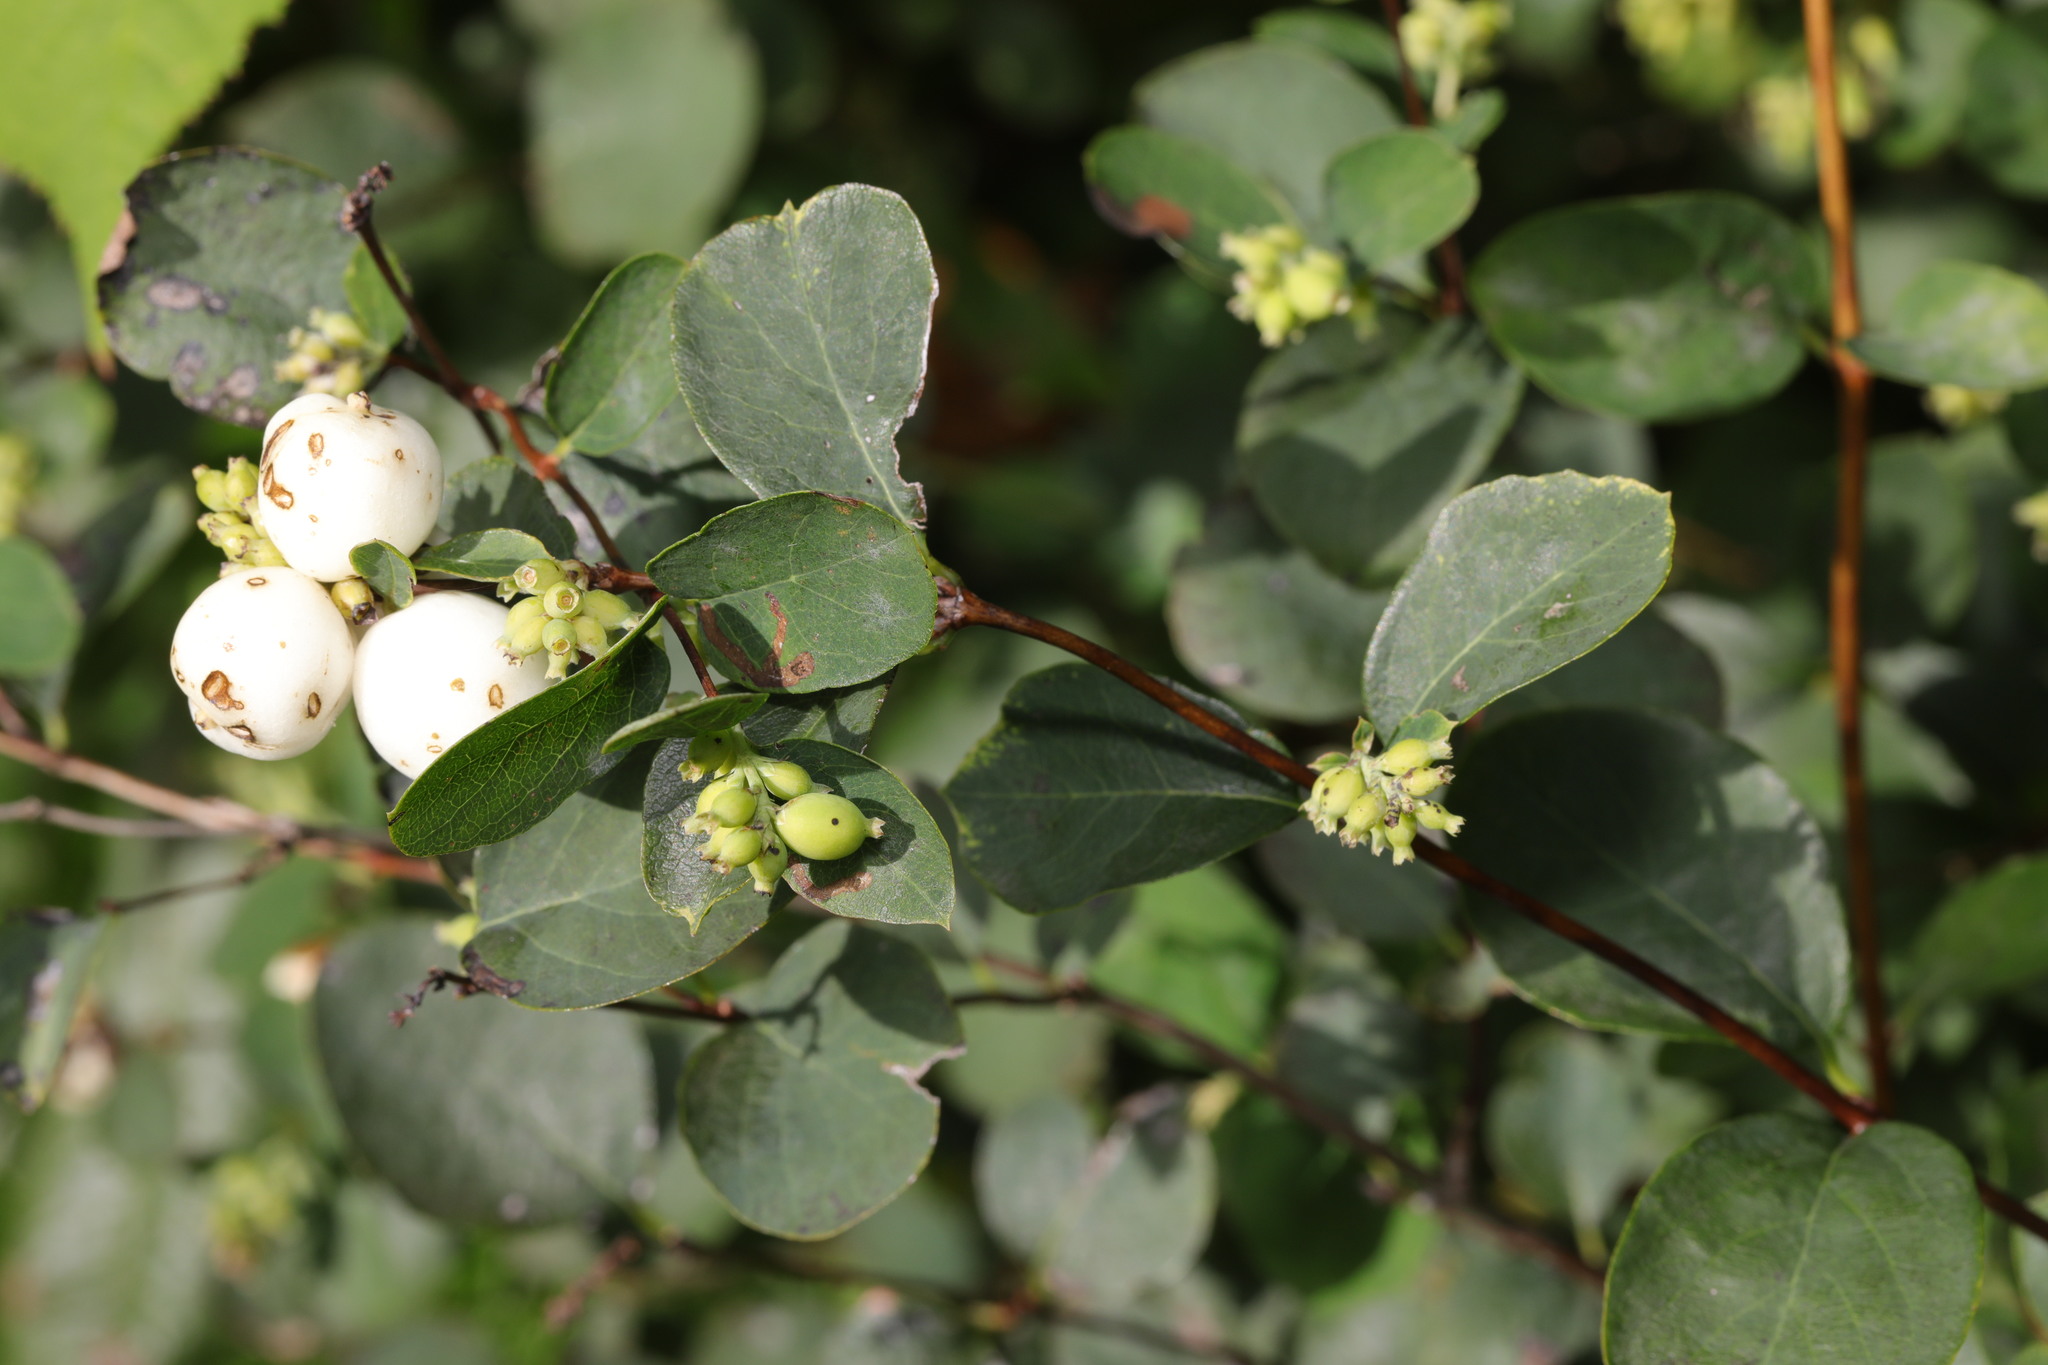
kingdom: Plantae
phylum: Tracheophyta
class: Magnoliopsida
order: Dipsacales
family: Caprifoliaceae
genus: Symphoricarpos
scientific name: Symphoricarpos albus
